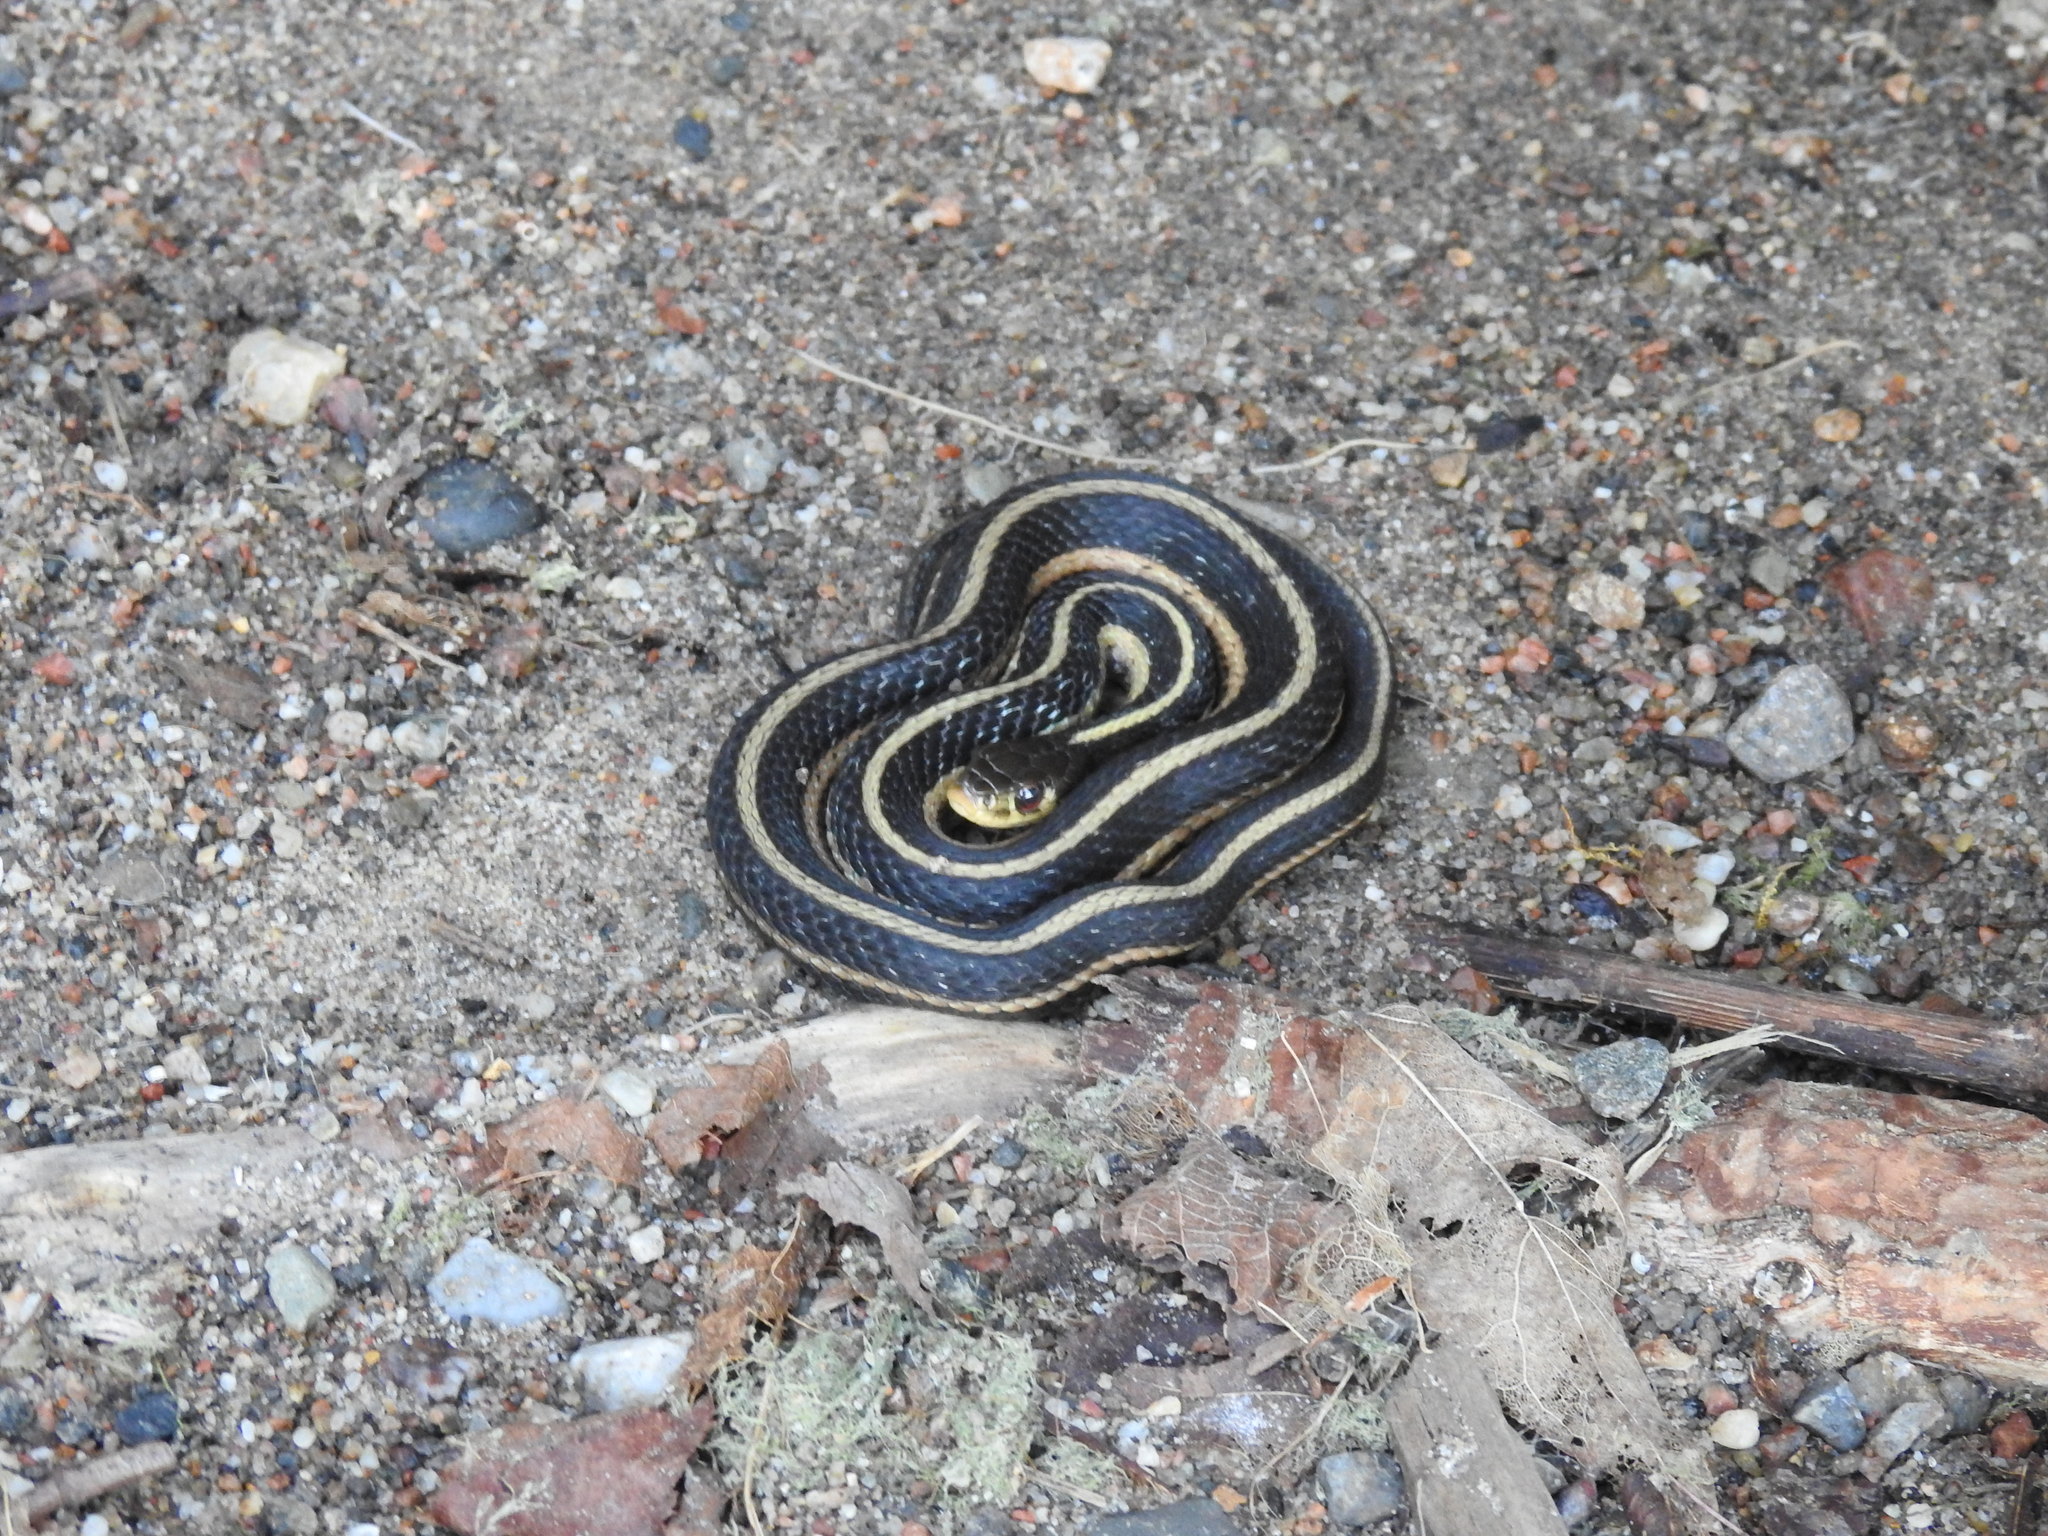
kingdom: Animalia
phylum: Chordata
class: Squamata
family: Colubridae
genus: Thamnophis
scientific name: Thamnophis sirtalis
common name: Common garter snake
